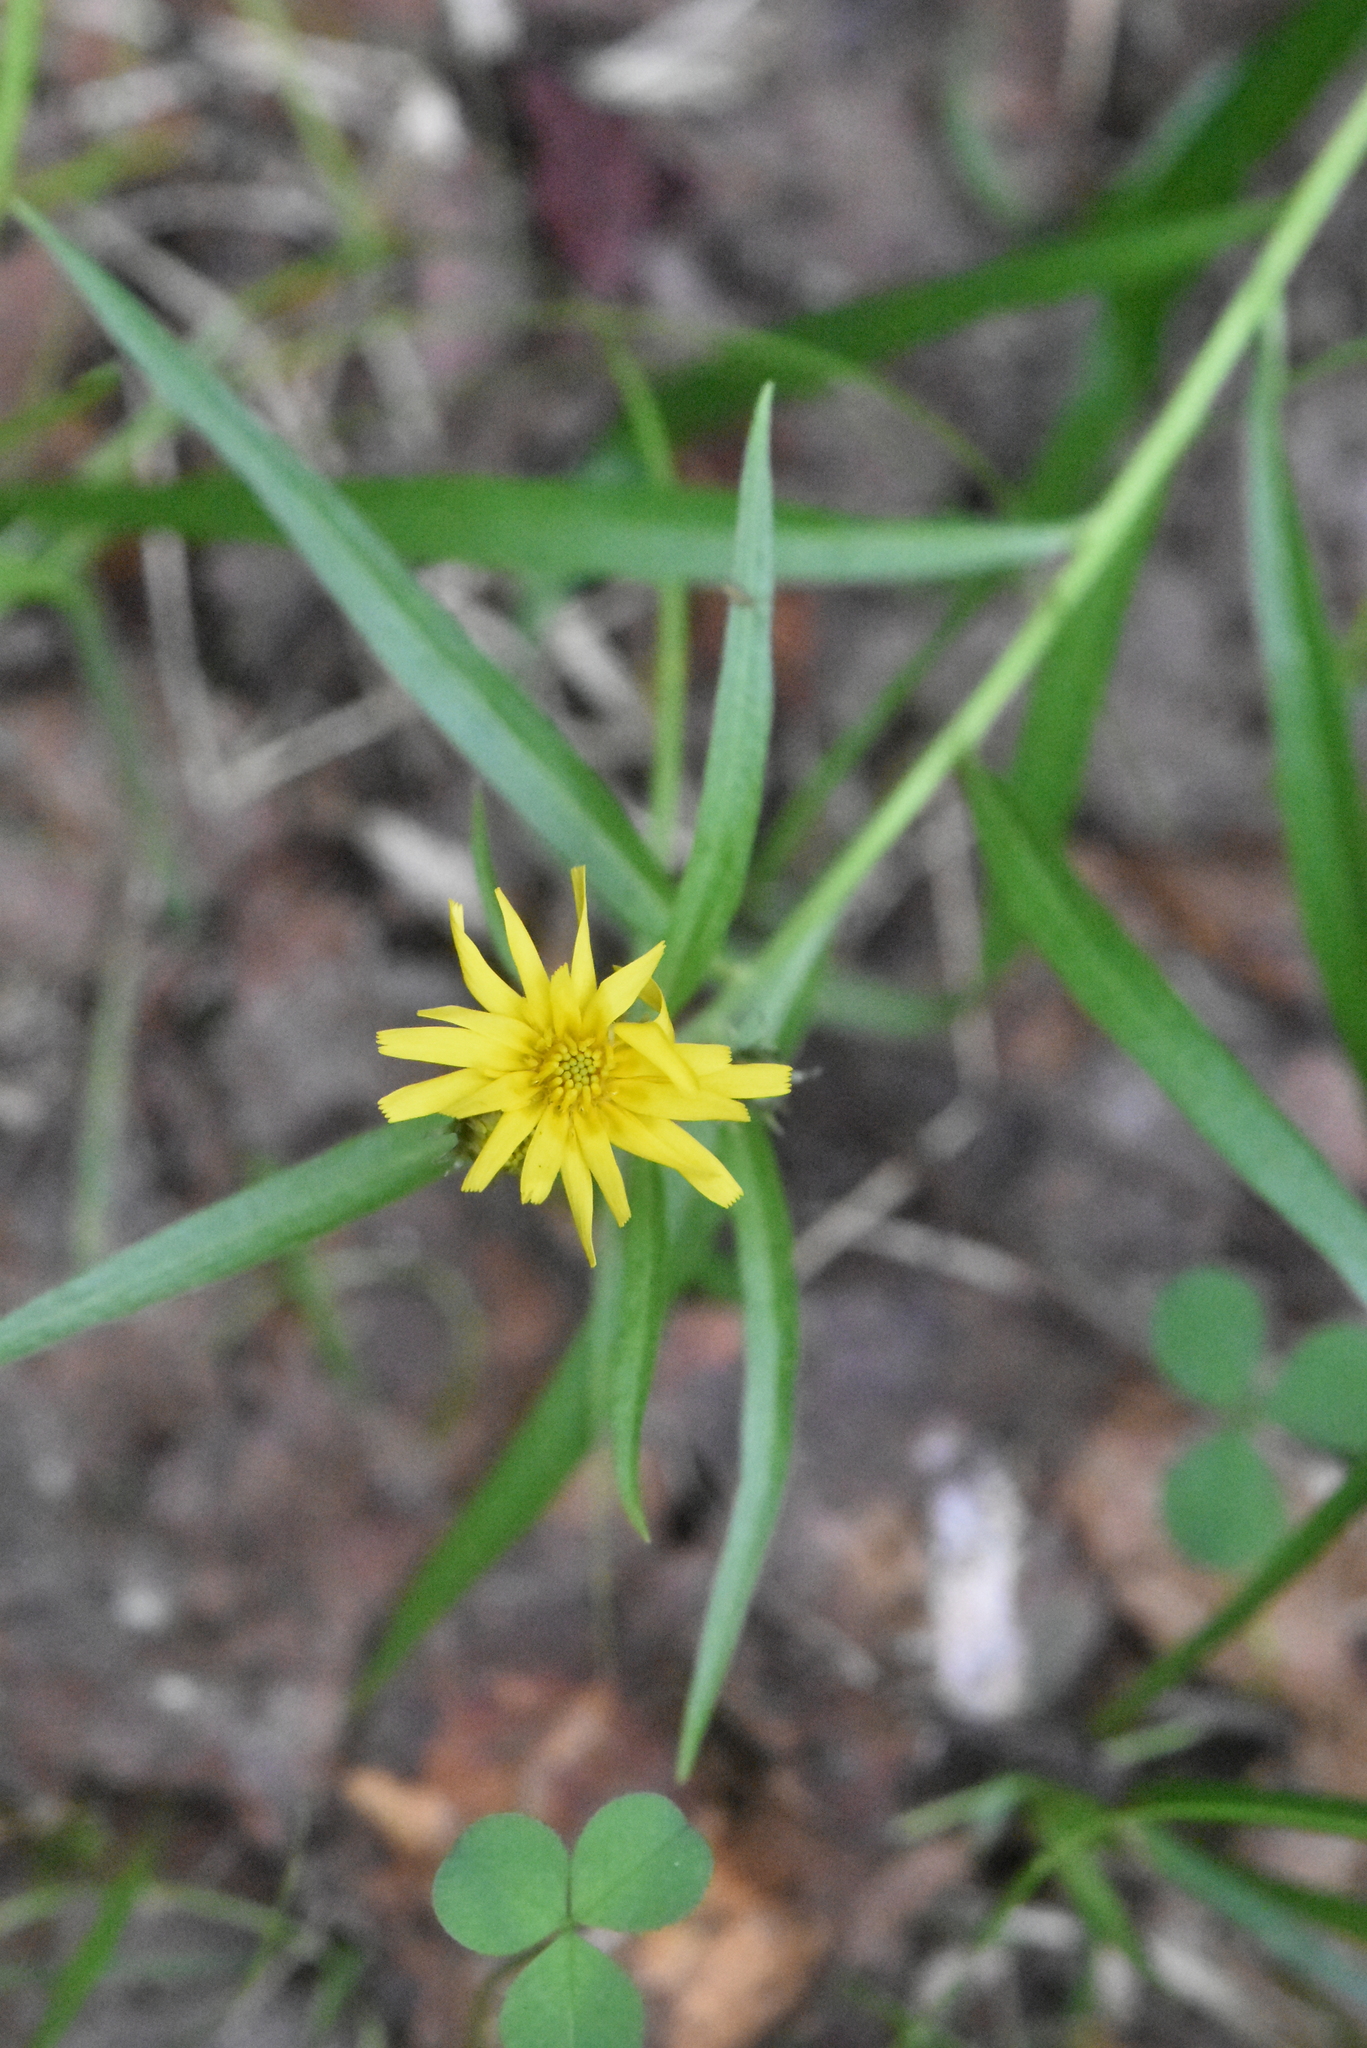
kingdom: Plantae
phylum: Tracheophyta
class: Magnoliopsida
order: Asterales
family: Asteraceae
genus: Hieracium
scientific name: Hieracium umbellatum
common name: Northern hawkweed
